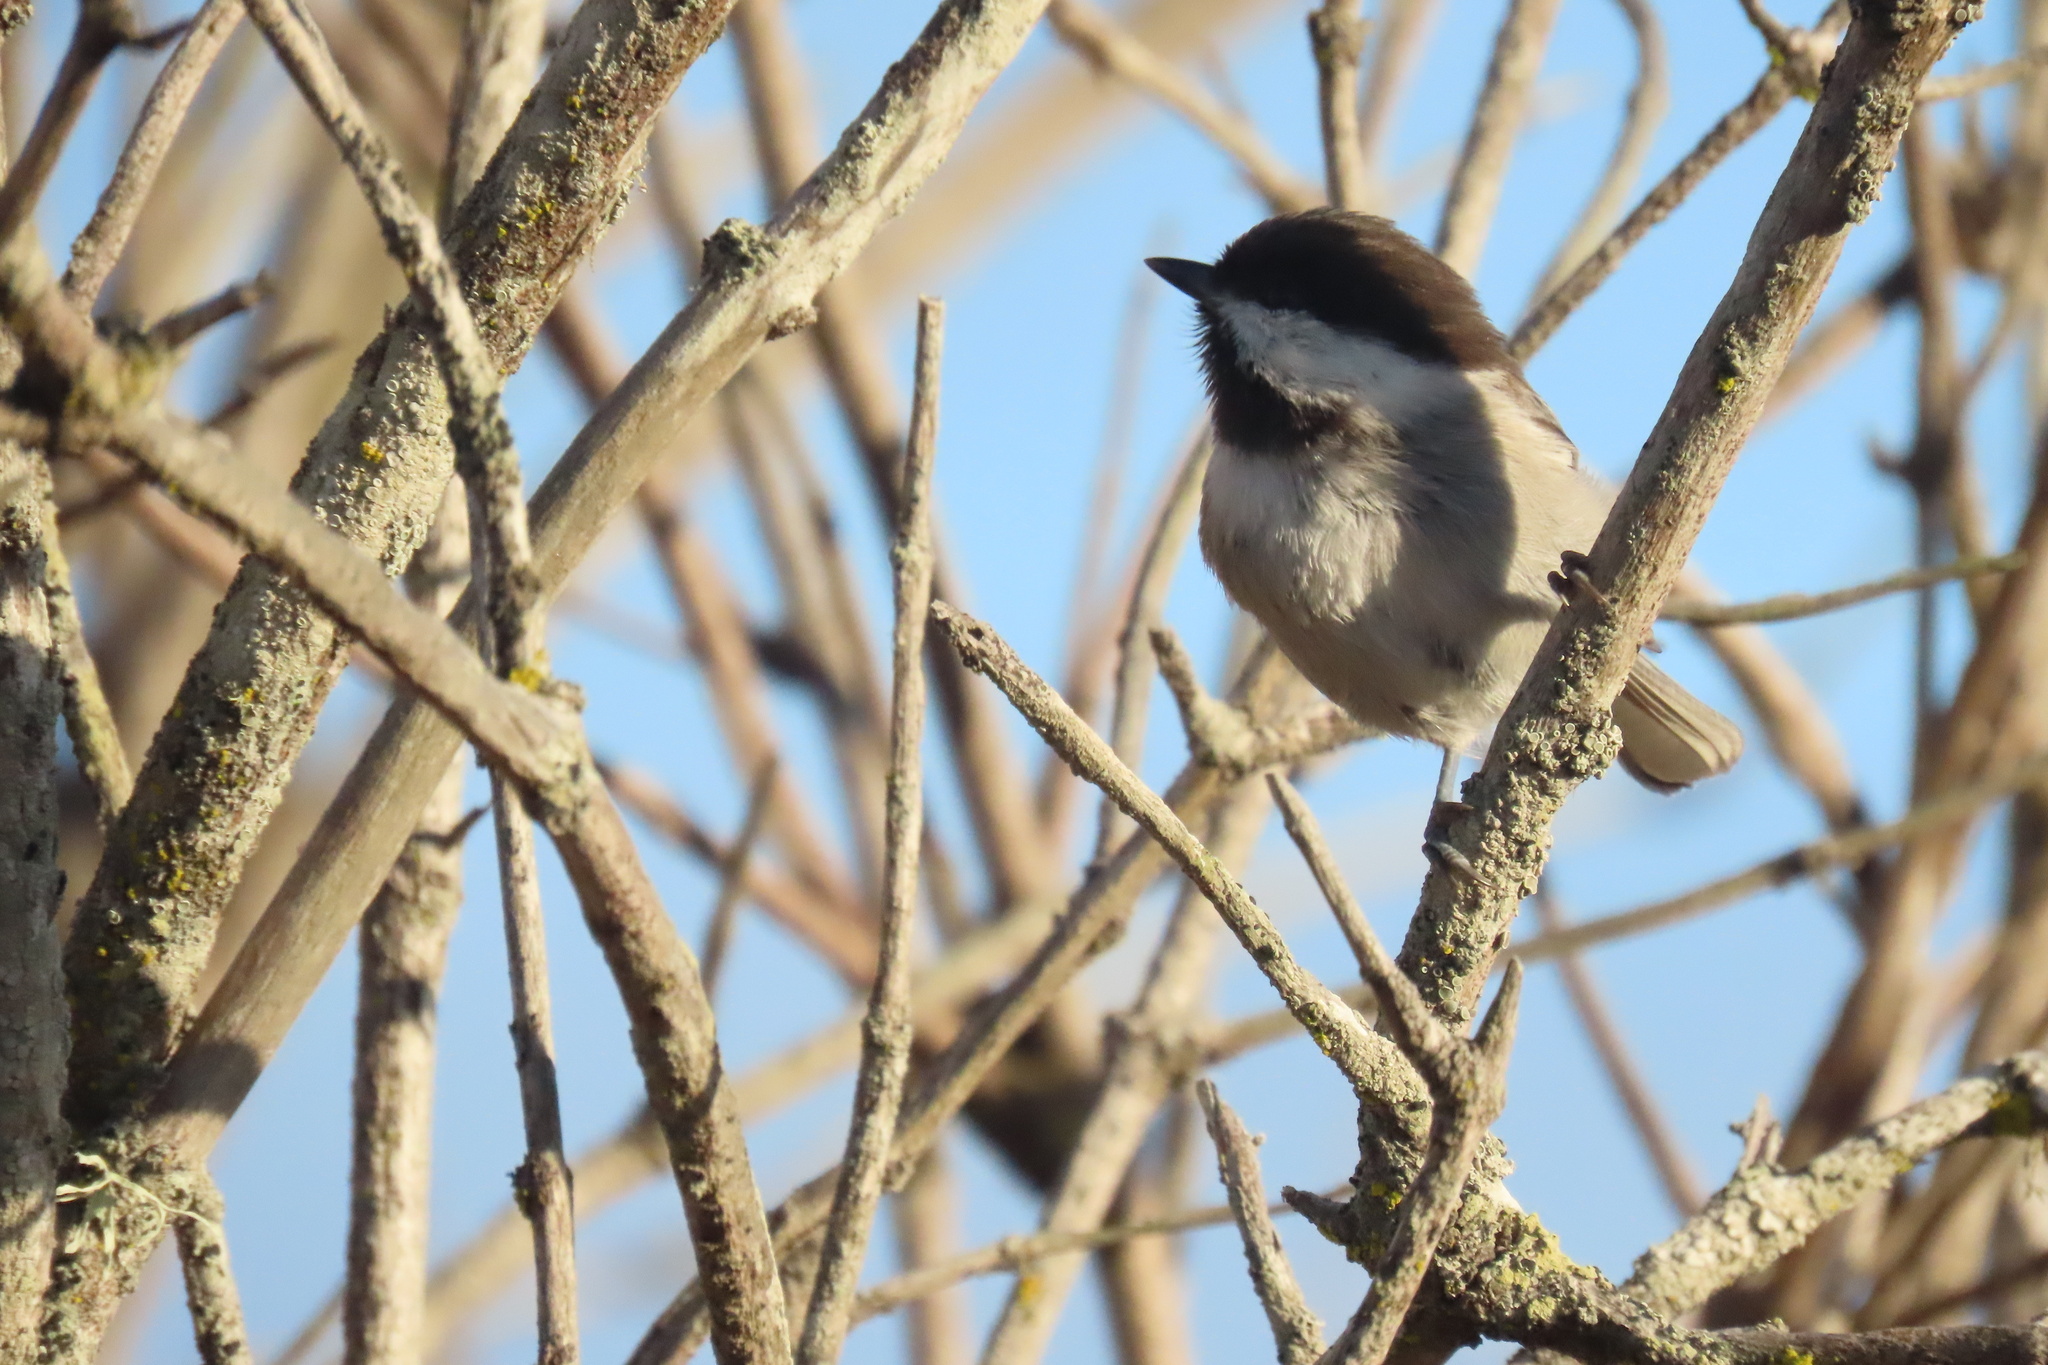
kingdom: Animalia
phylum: Chordata
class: Aves
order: Passeriformes
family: Paridae
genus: Poecile
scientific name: Poecile rufescens
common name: Chestnut-backed chickadee
